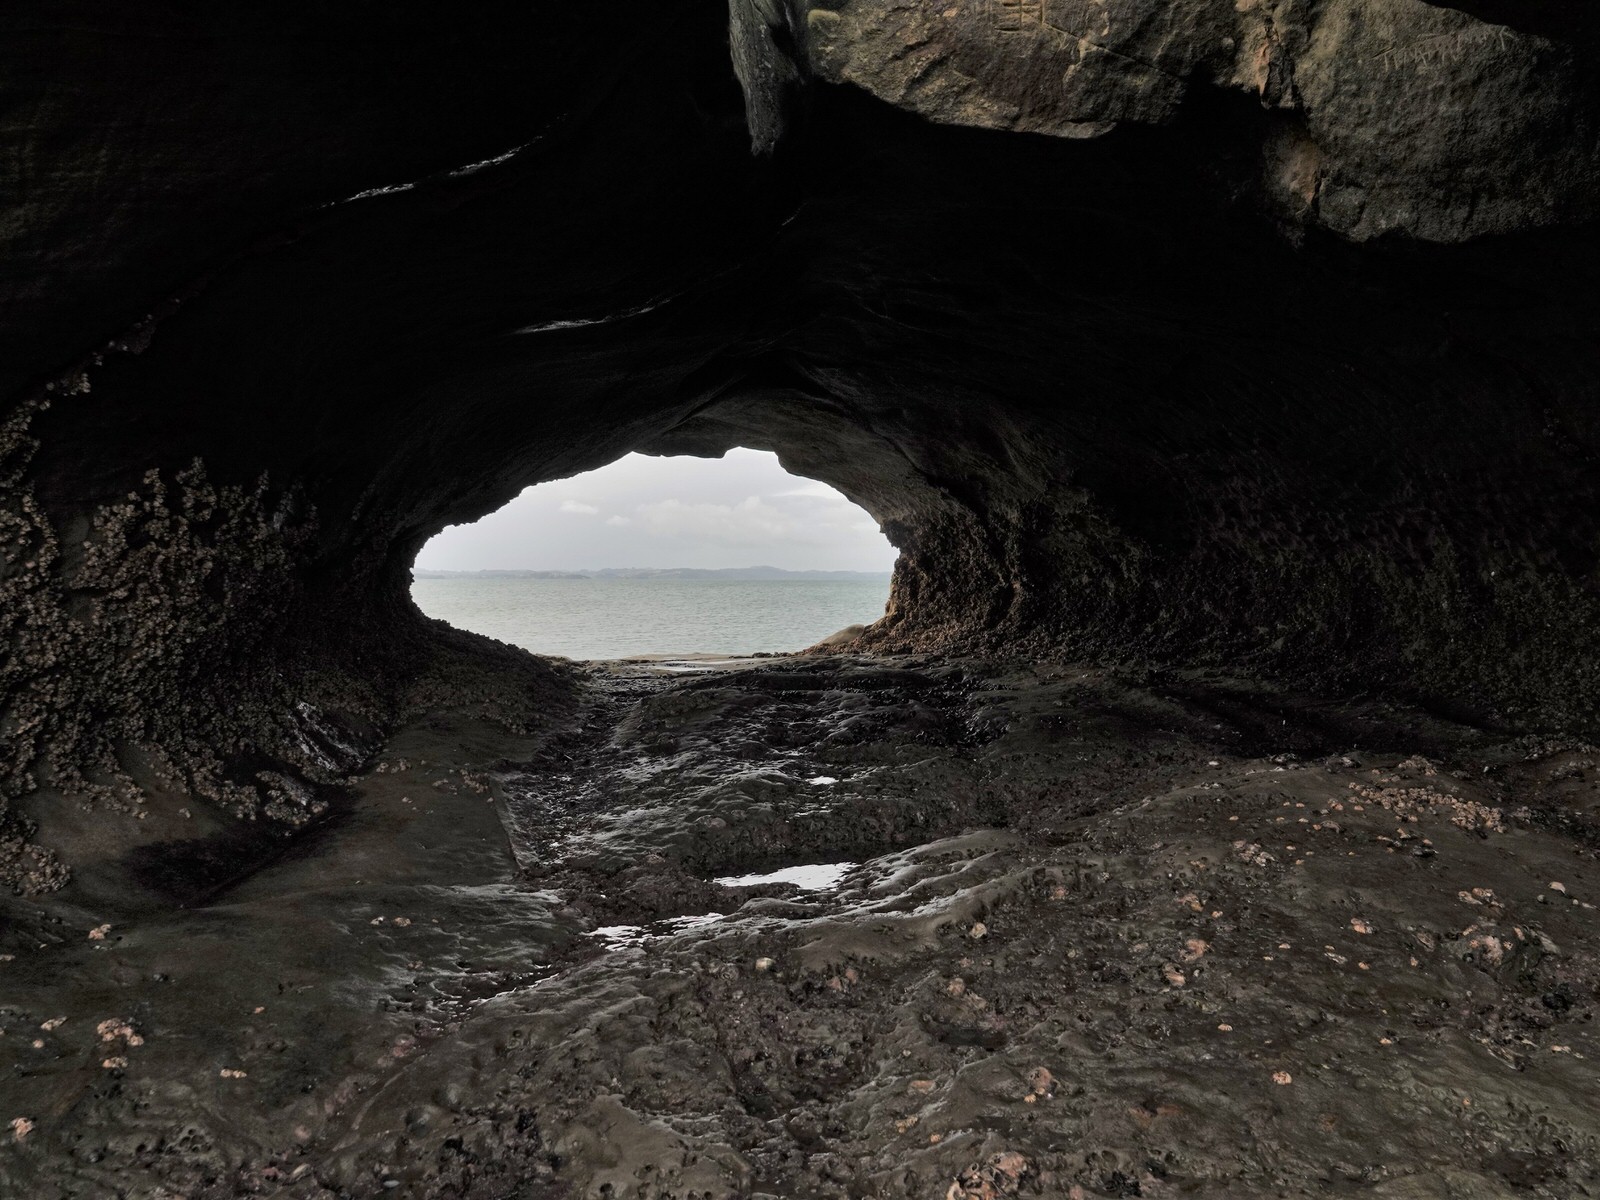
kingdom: Animalia
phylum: Cnidaria
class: Anthozoa
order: Actiniaria
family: Sagartiidae
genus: Anthothoe
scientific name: Anthothoe albocincta
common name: Orange striped anemone
